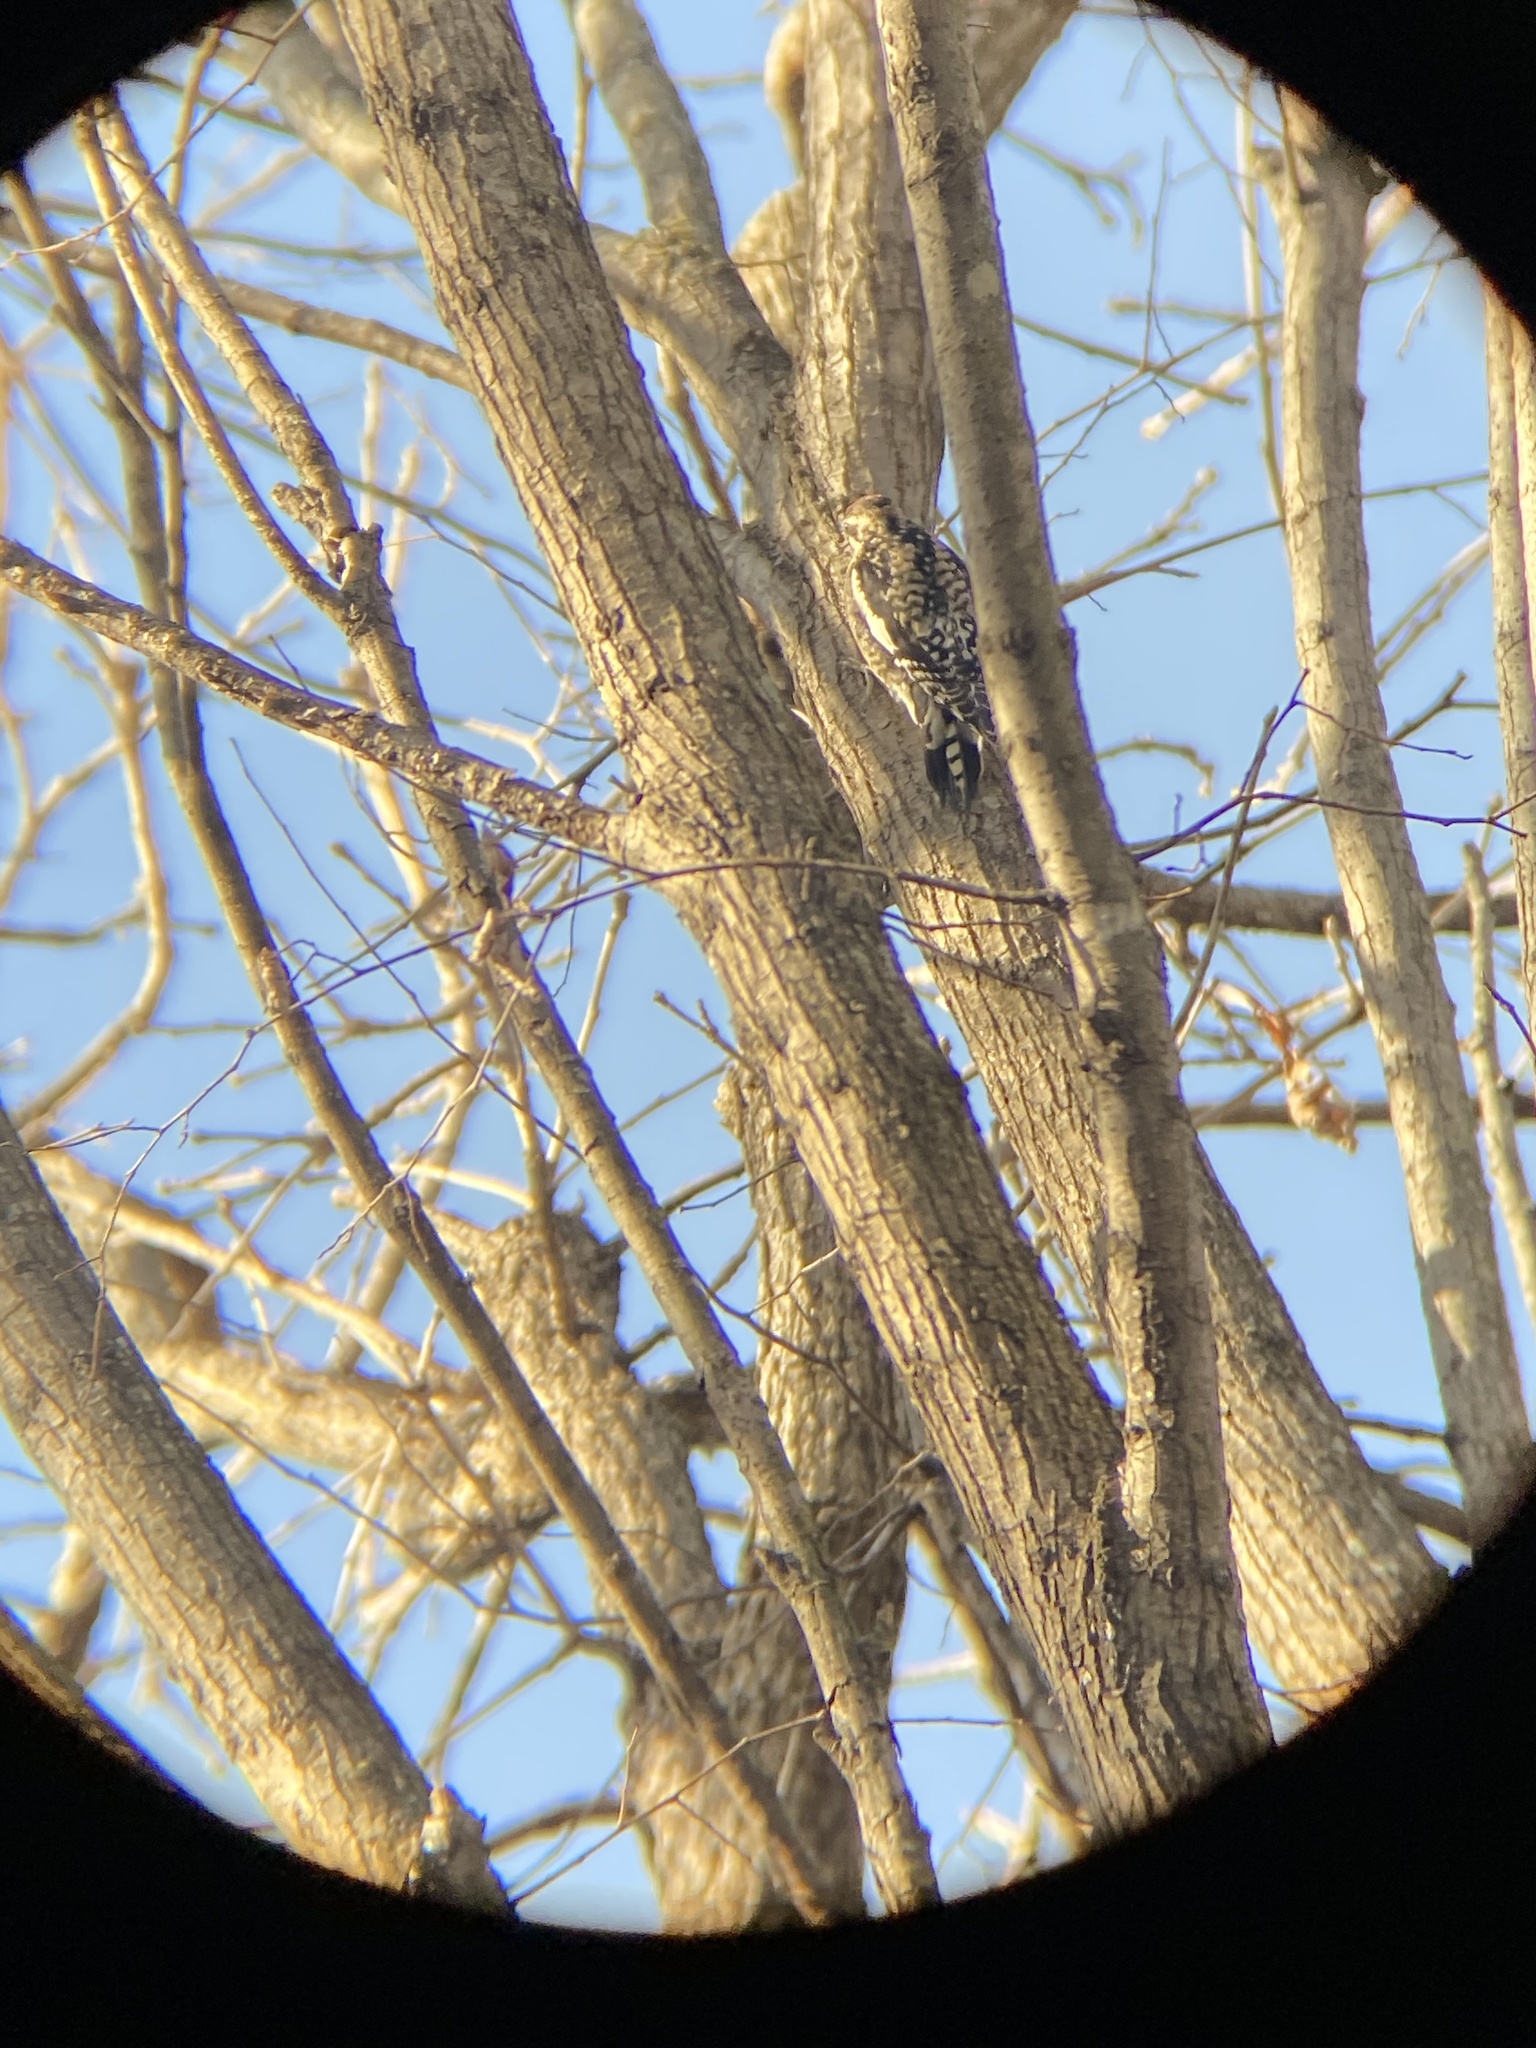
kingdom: Animalia
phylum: Chordata
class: Aves
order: Piciformes
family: Picidae
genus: Sphyrapicus
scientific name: Sphyrapicus varius
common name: Yellow-bellied sapsucker
